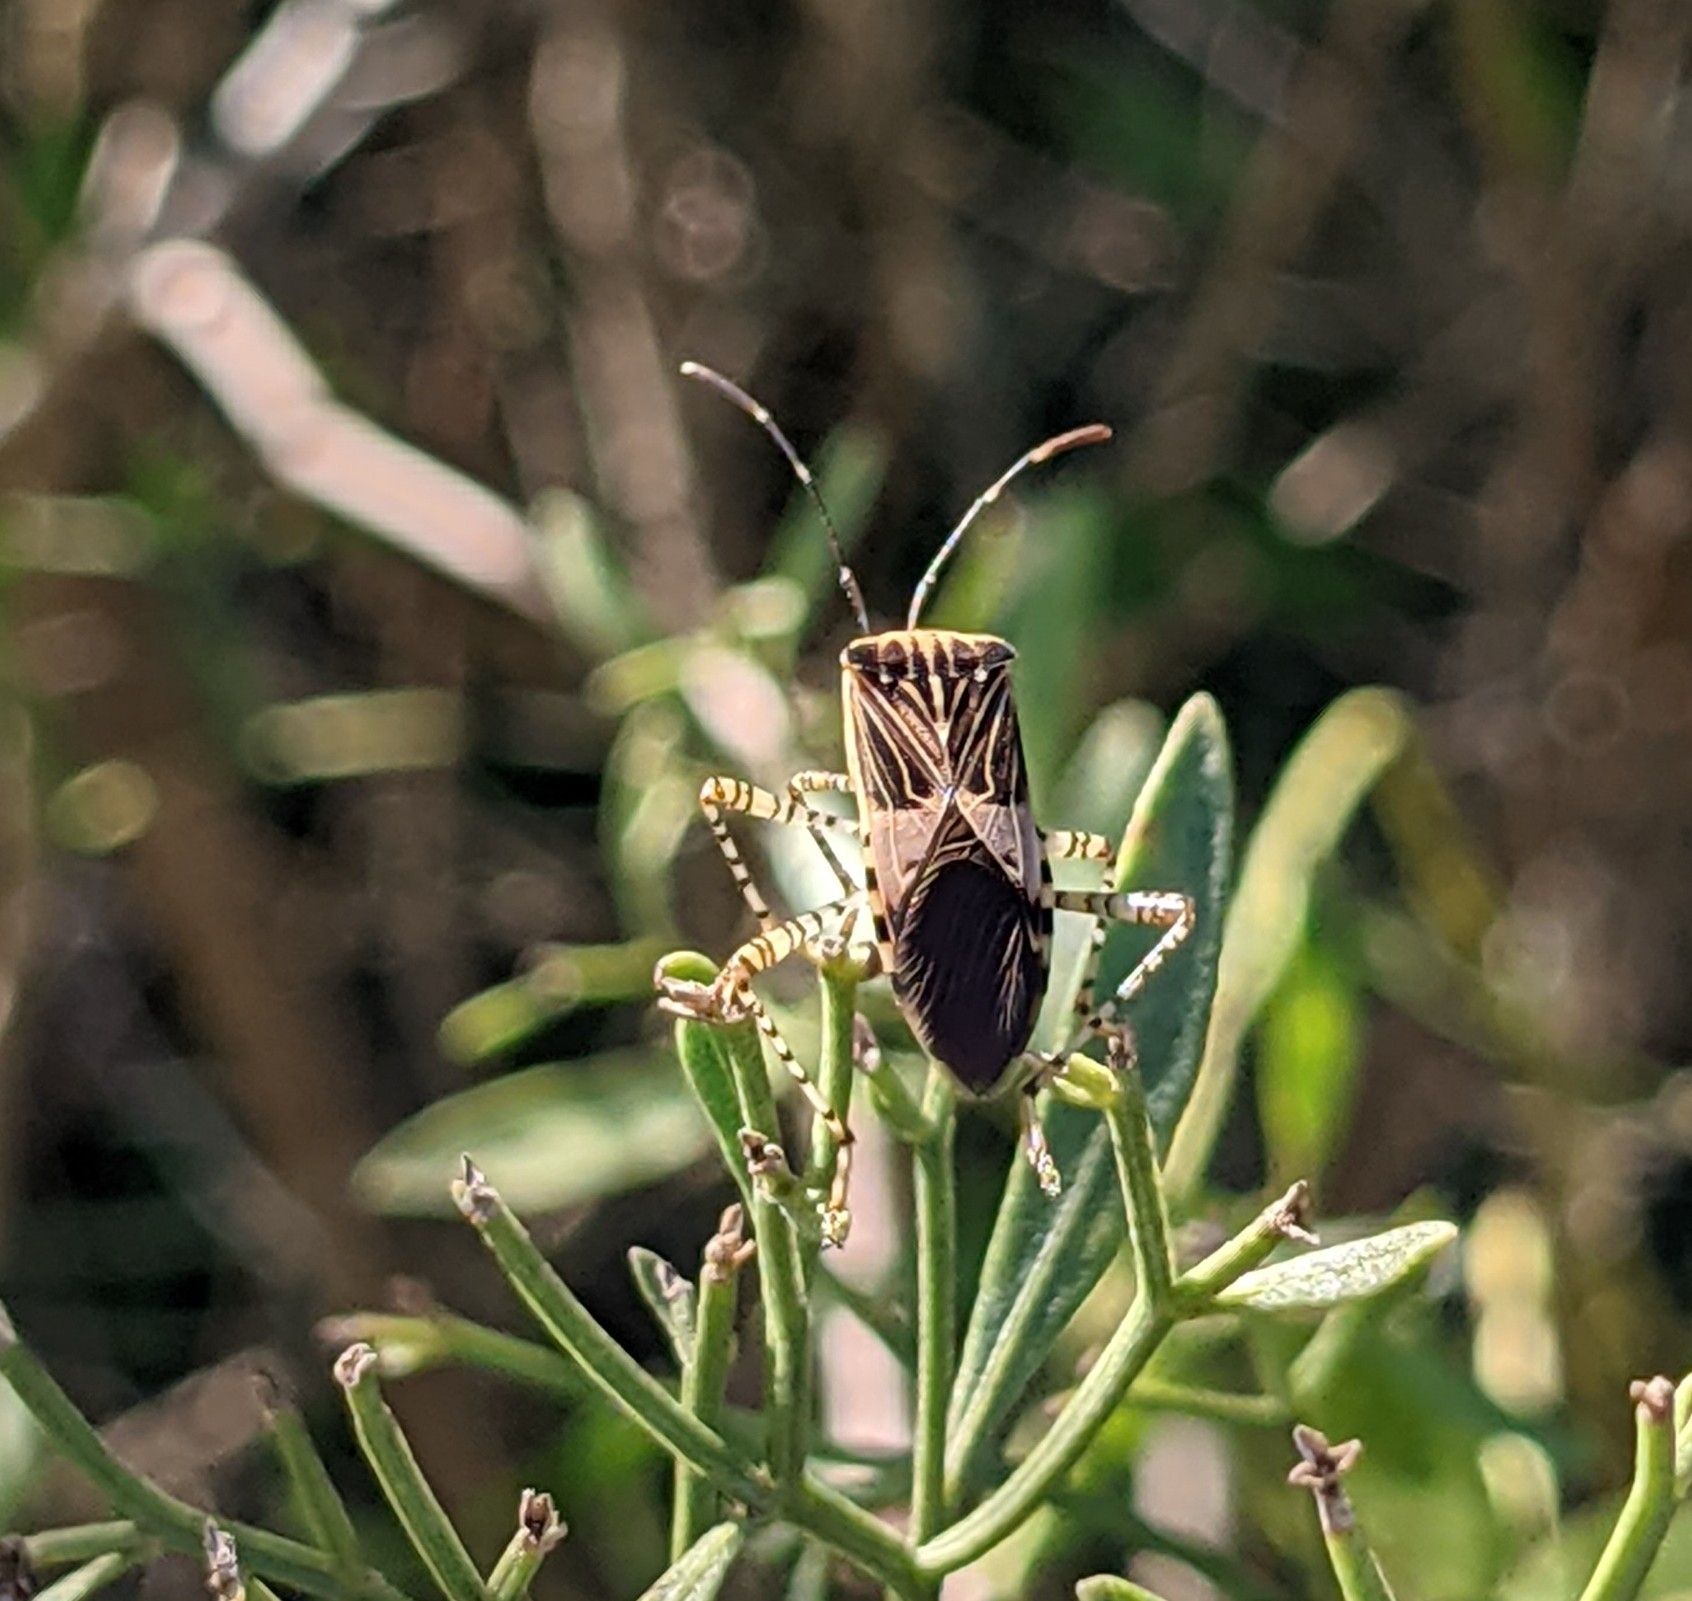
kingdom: Animalia
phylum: Arthropoda
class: Insecta
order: Hemiptera
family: Coreidae
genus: Hypselonotus
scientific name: Hypselonotus punctiventris
